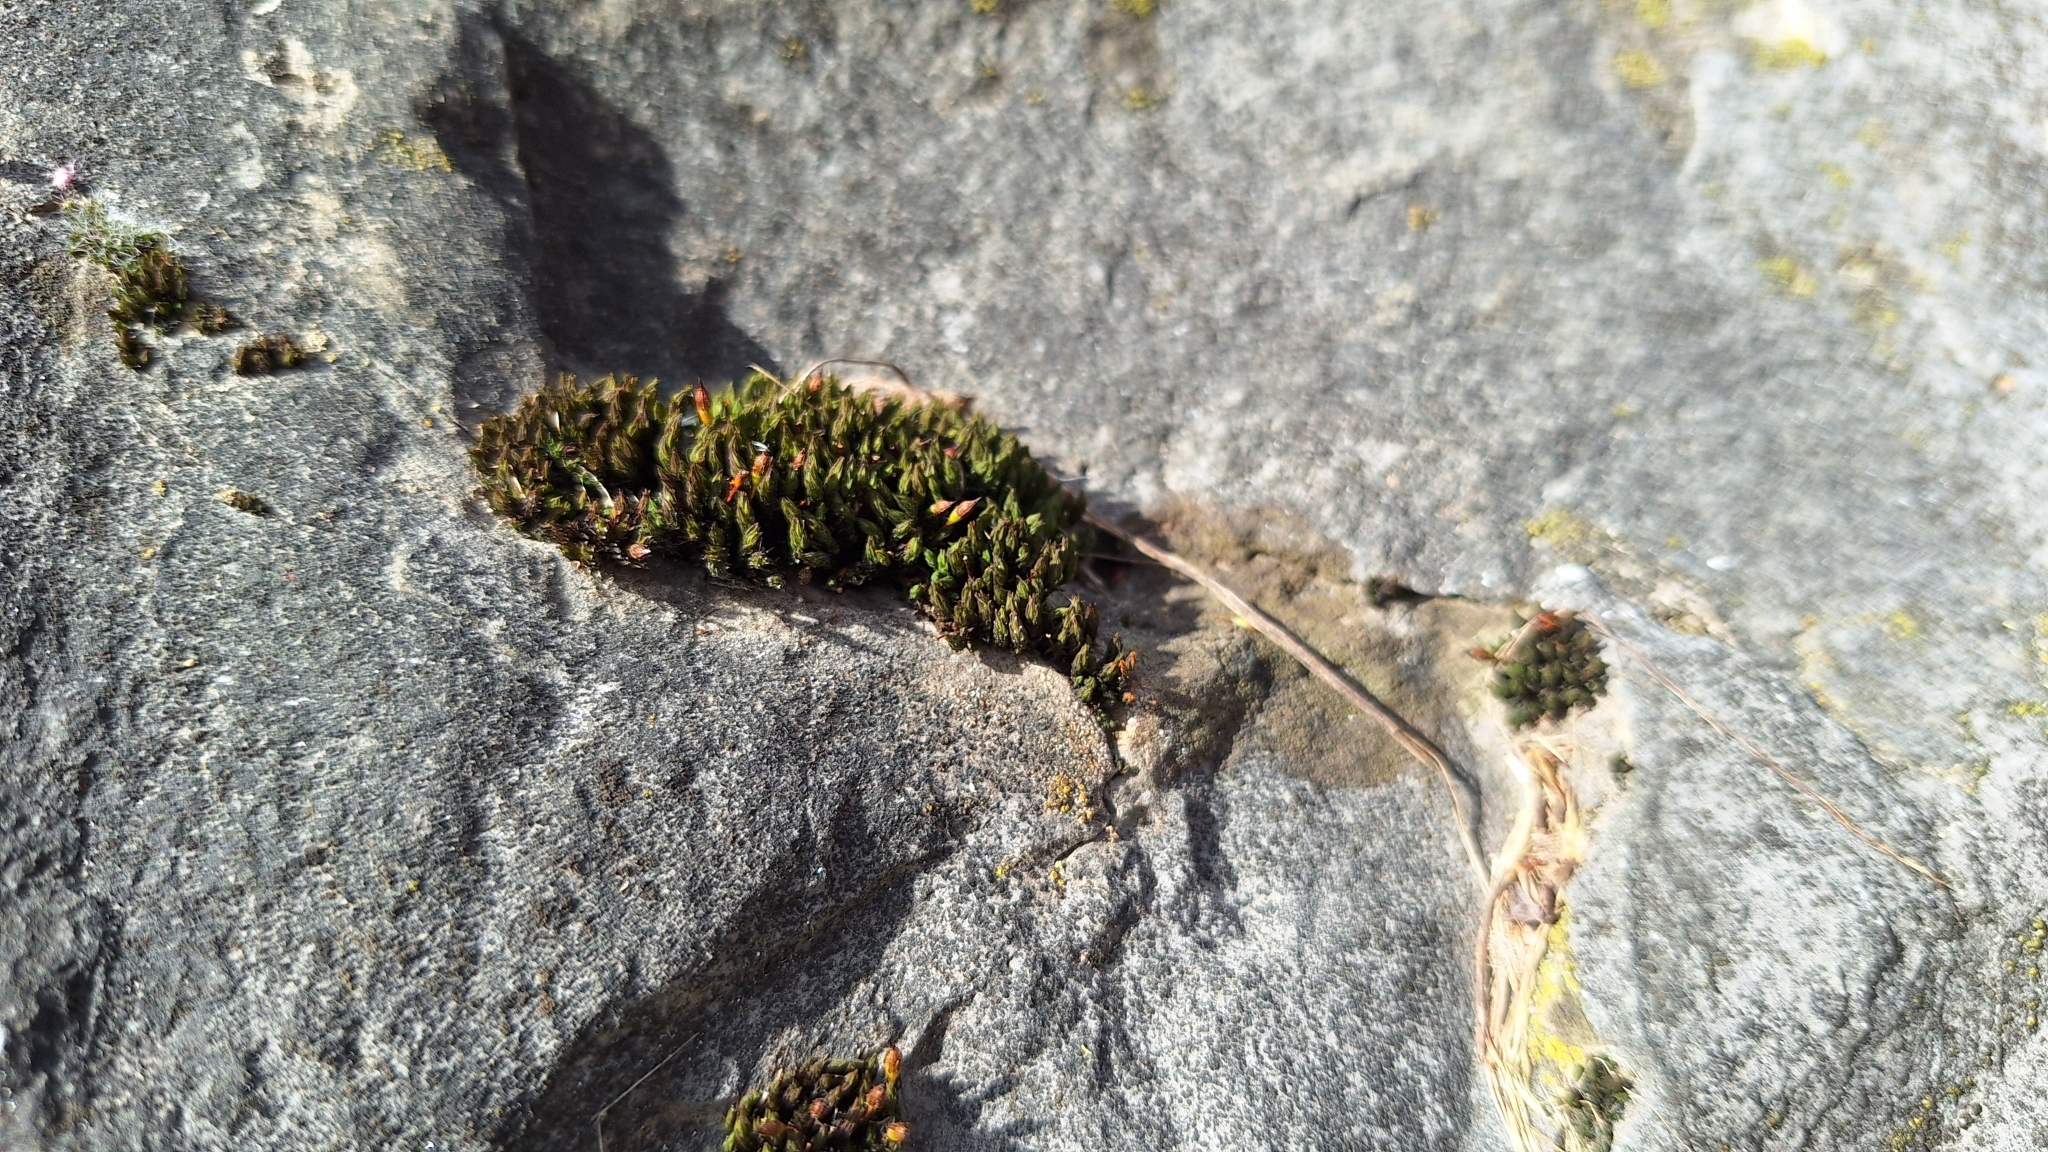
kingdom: Plantae
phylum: Bryophyta
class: Bryopsida
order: Orthotrichales
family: Orthotrichaceae
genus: Orthotrichum
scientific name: Orthotrichum anomalum
